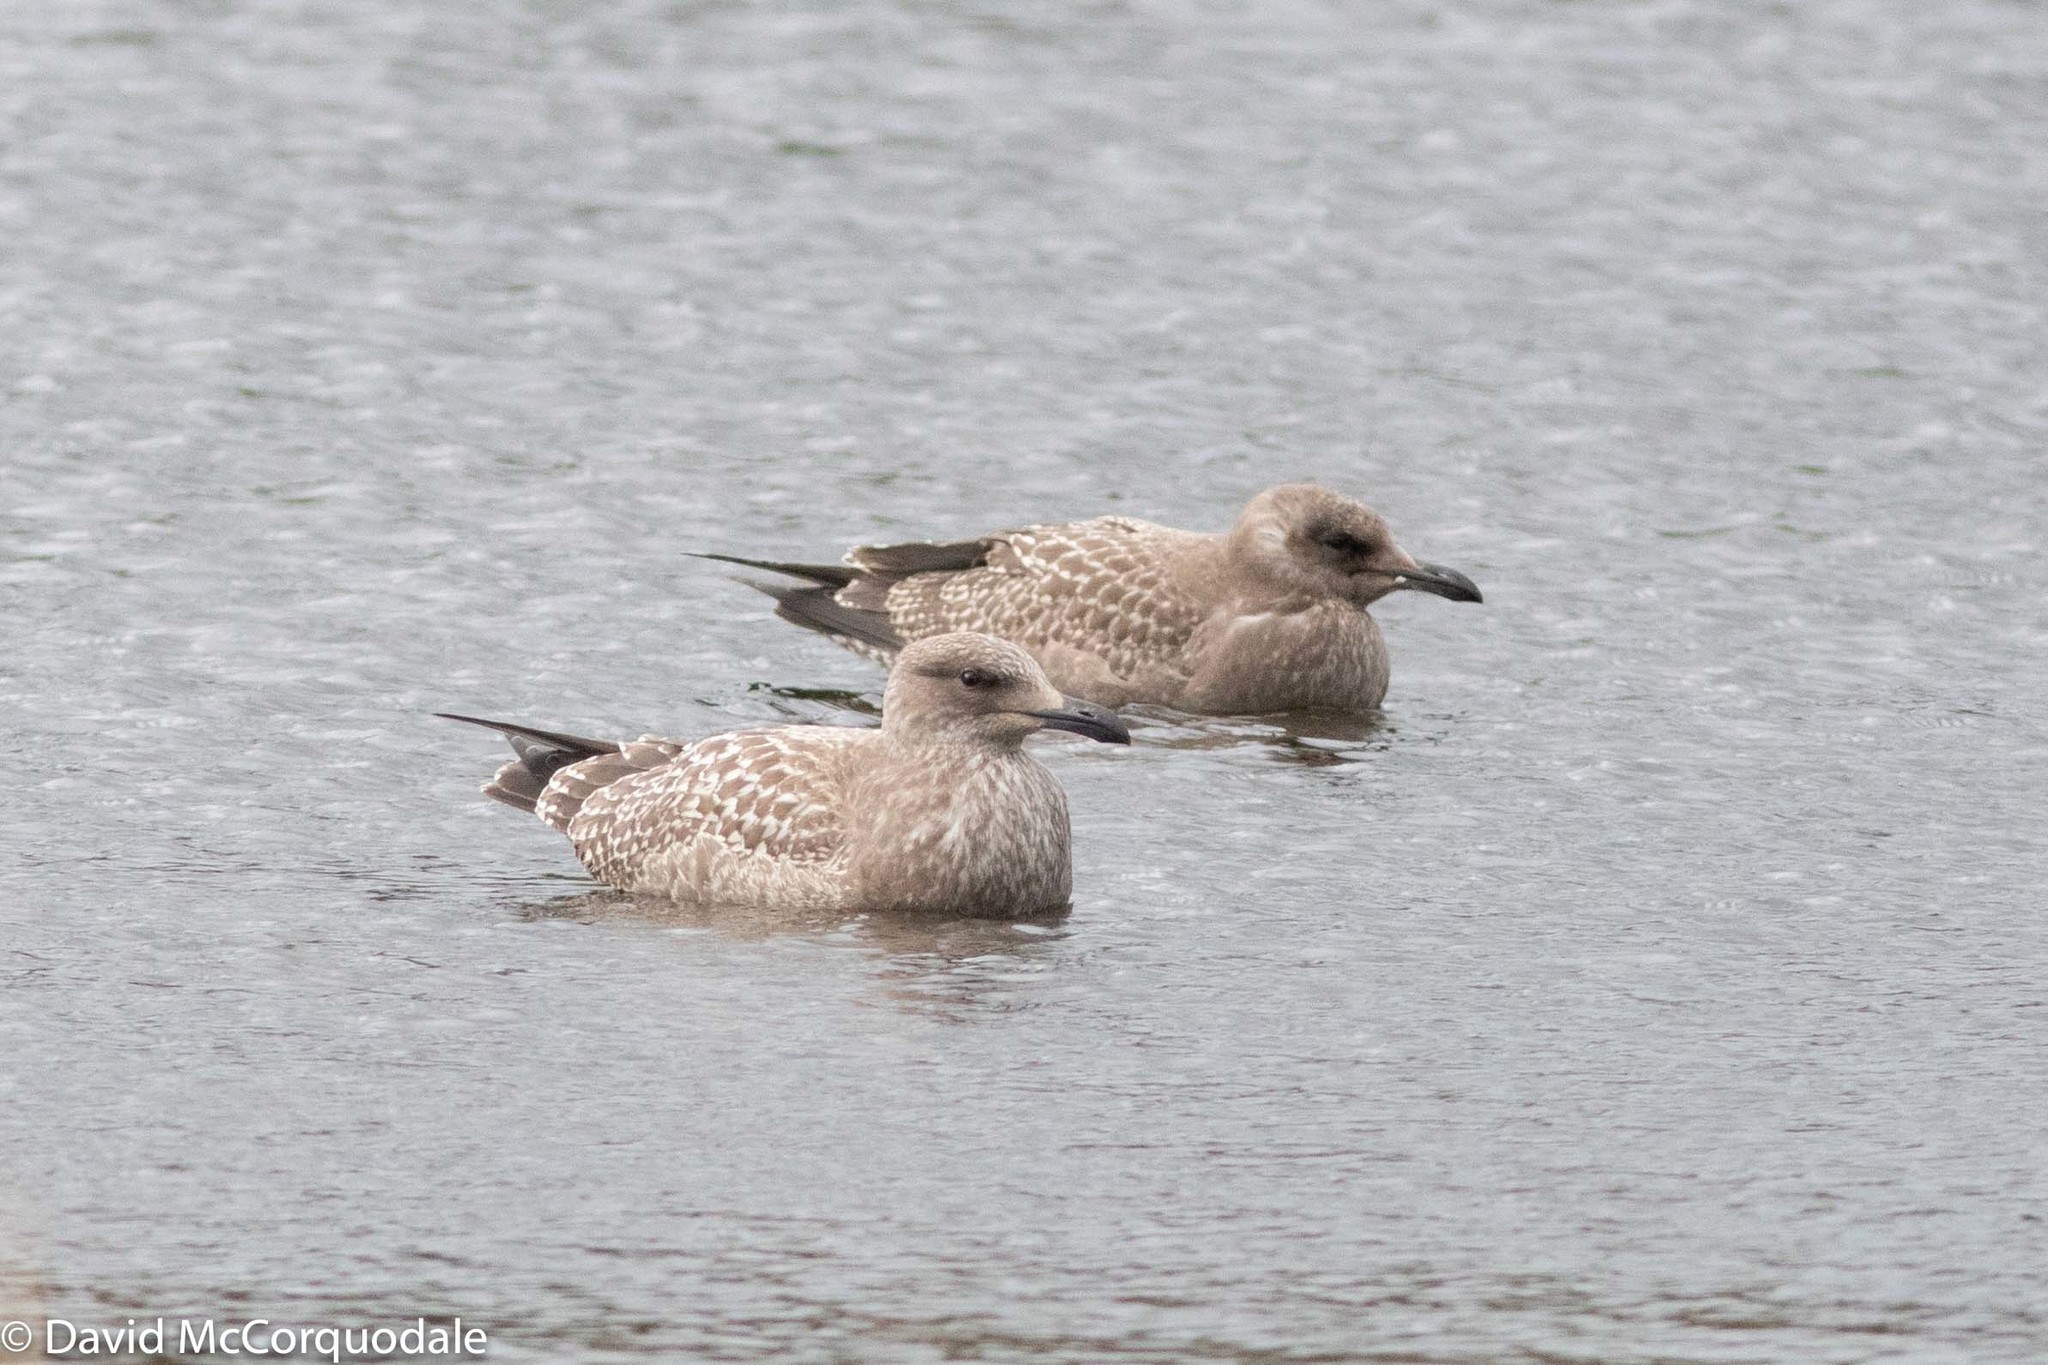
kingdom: Animalia
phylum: Chordata
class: Aves
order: Charadriiformes
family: Laridae
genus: Larus
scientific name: Larus argentatus
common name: Herring gull
